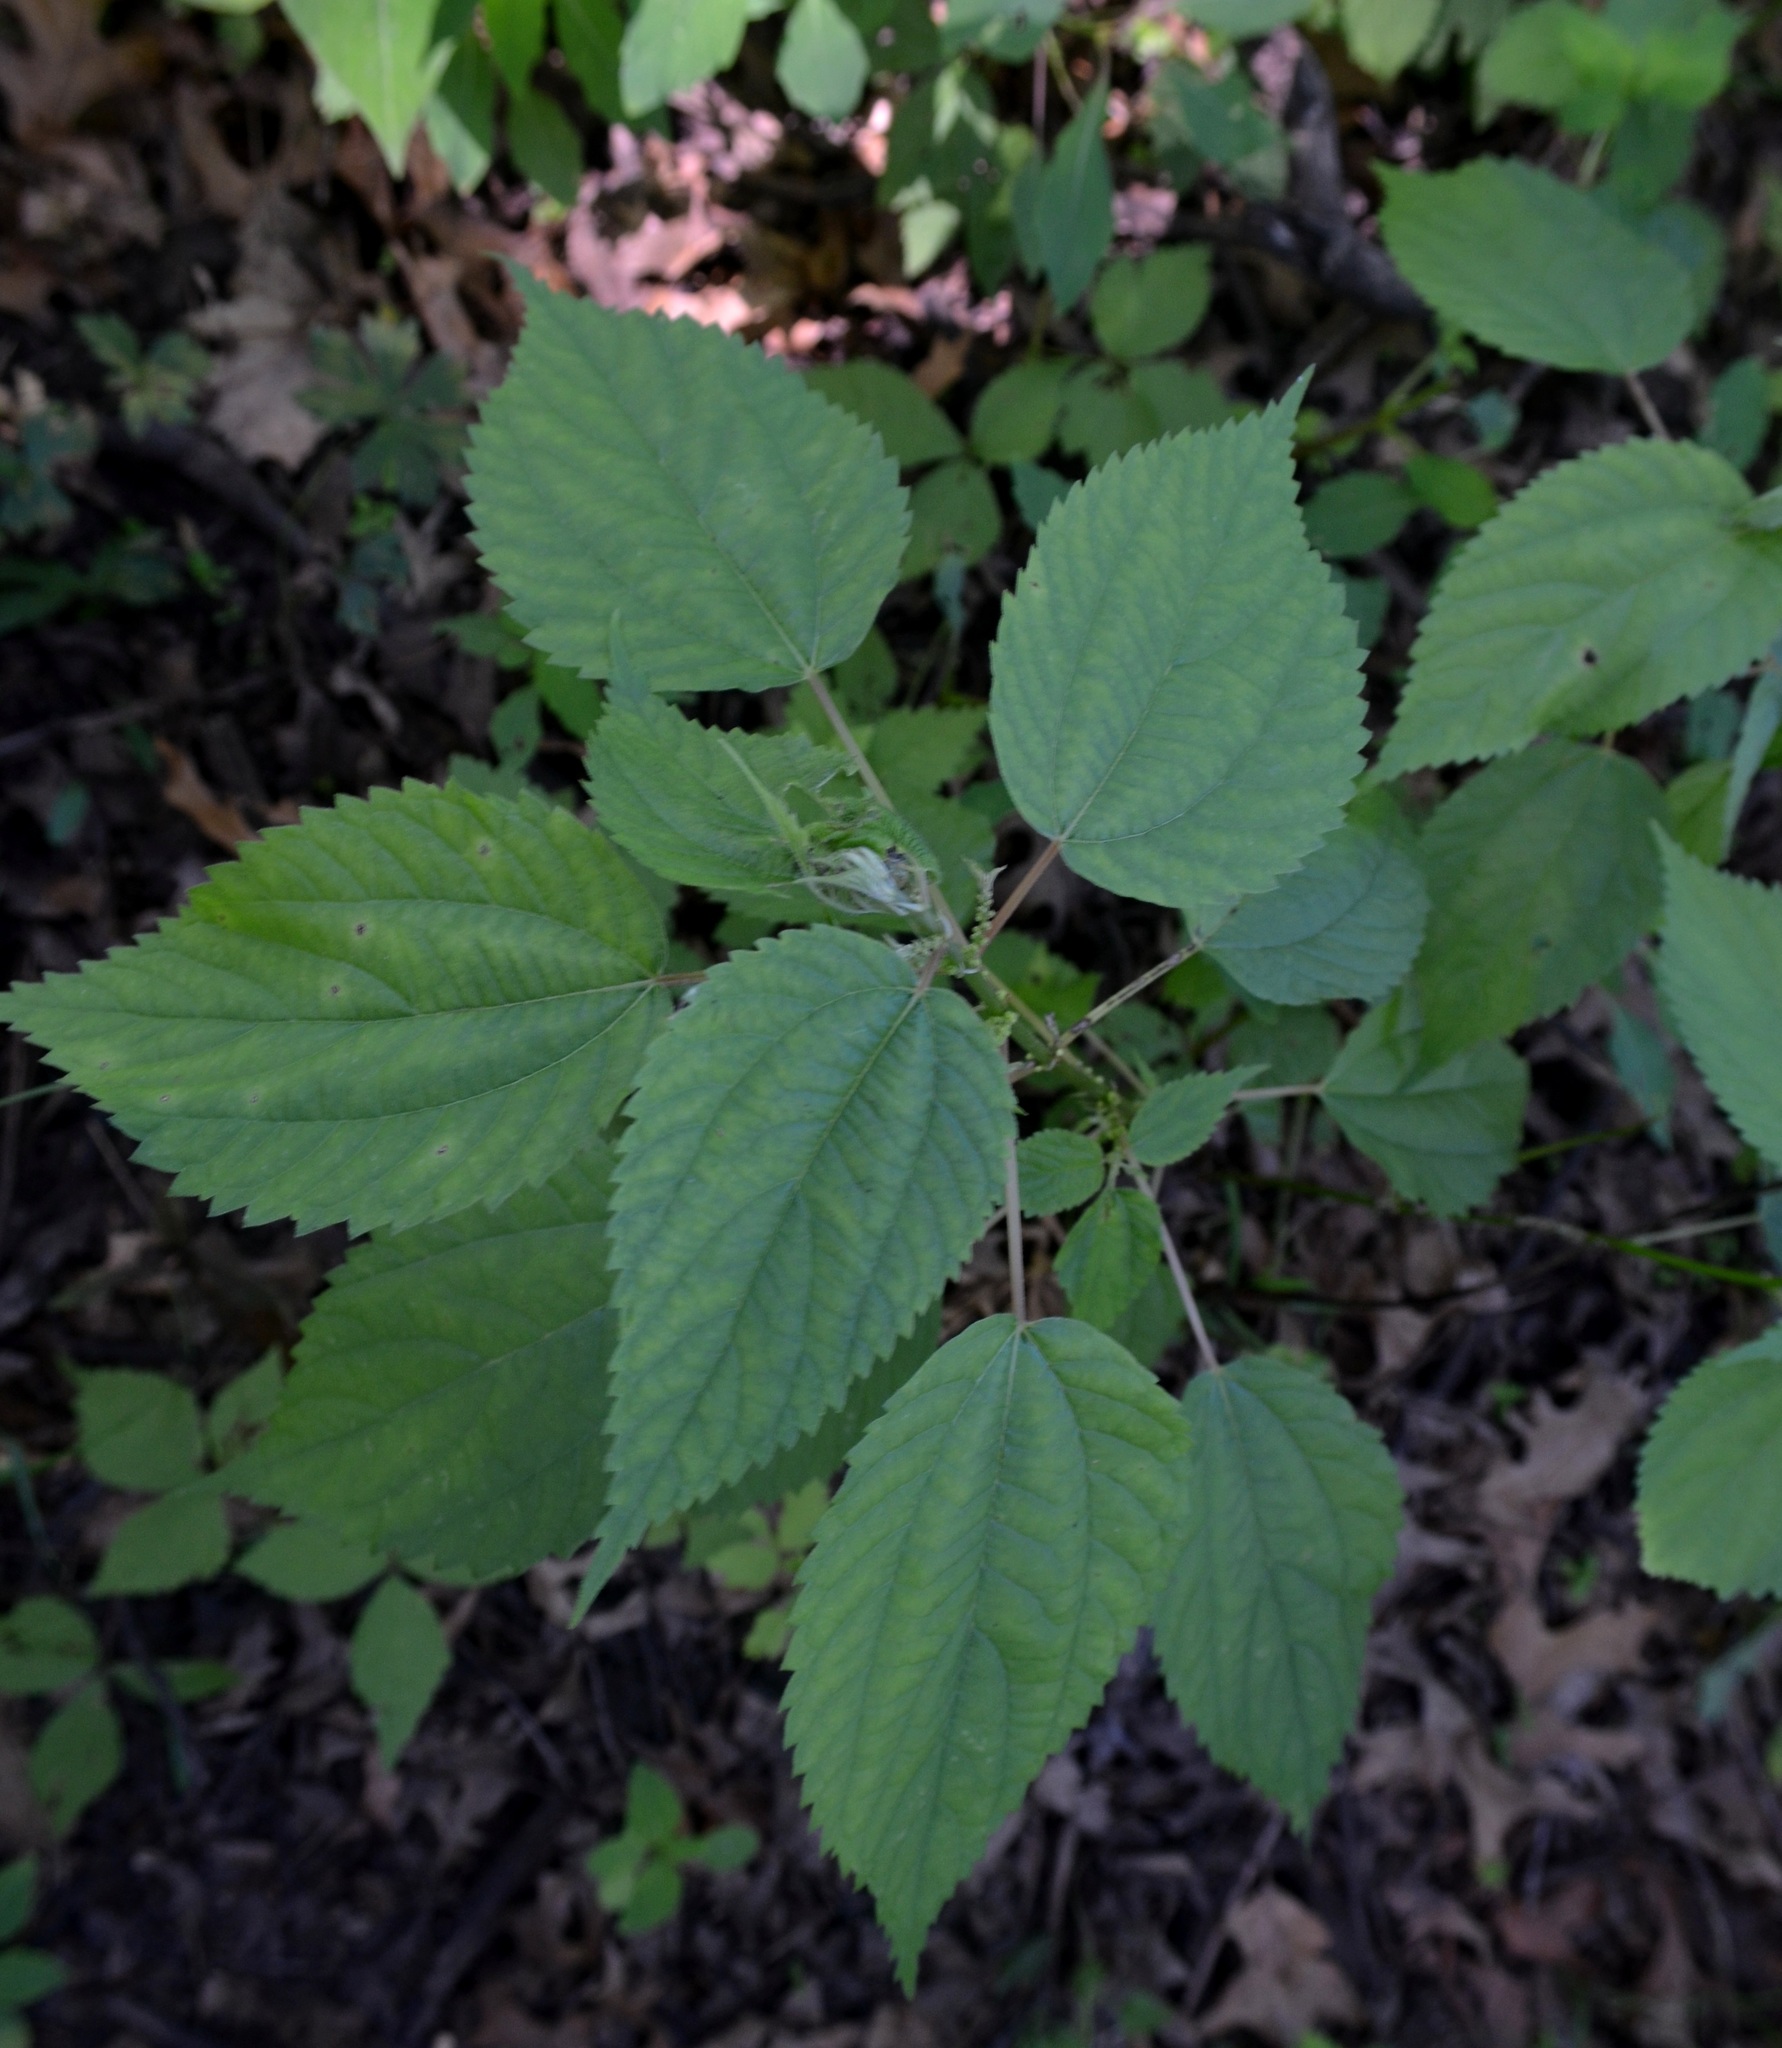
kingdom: Plantae
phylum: Tracheophyta
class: Magnoliopsida
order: Rosales
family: Urticaceae
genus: Boehmeria
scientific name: Boehmeria cylindrica
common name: Bog-hemp
